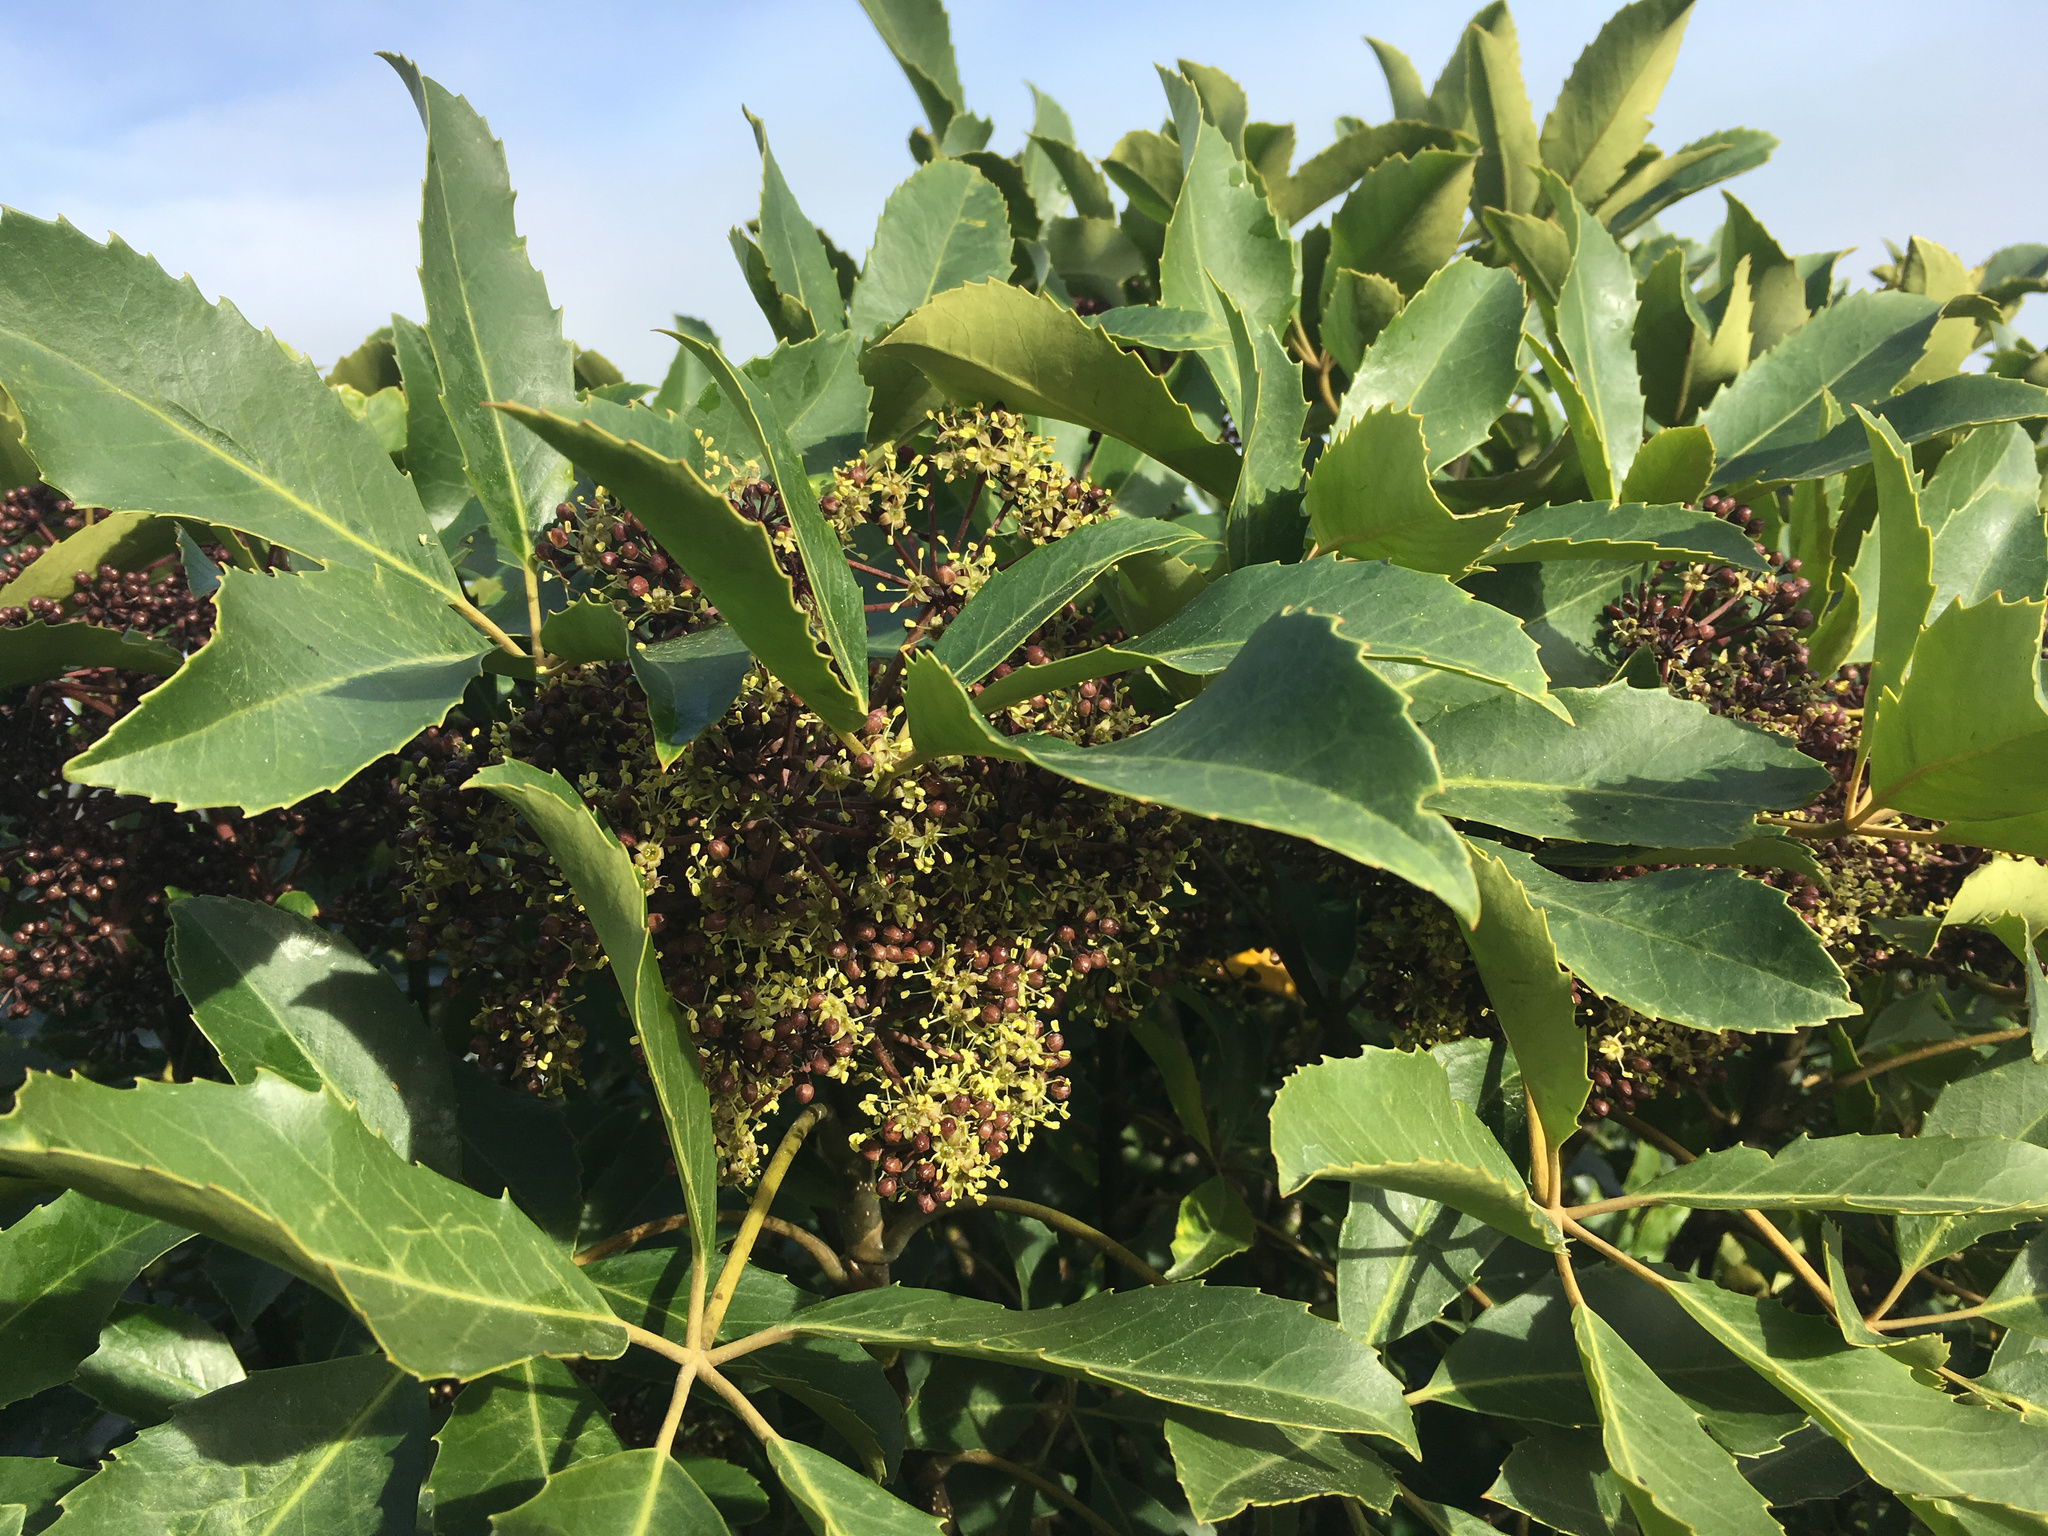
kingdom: Plantae
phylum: Tracheophyta
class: Magnoliopsida
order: Apiales
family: Araliaceae
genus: Neopanax
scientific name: Neopanax arboreus
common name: Five-fingers
